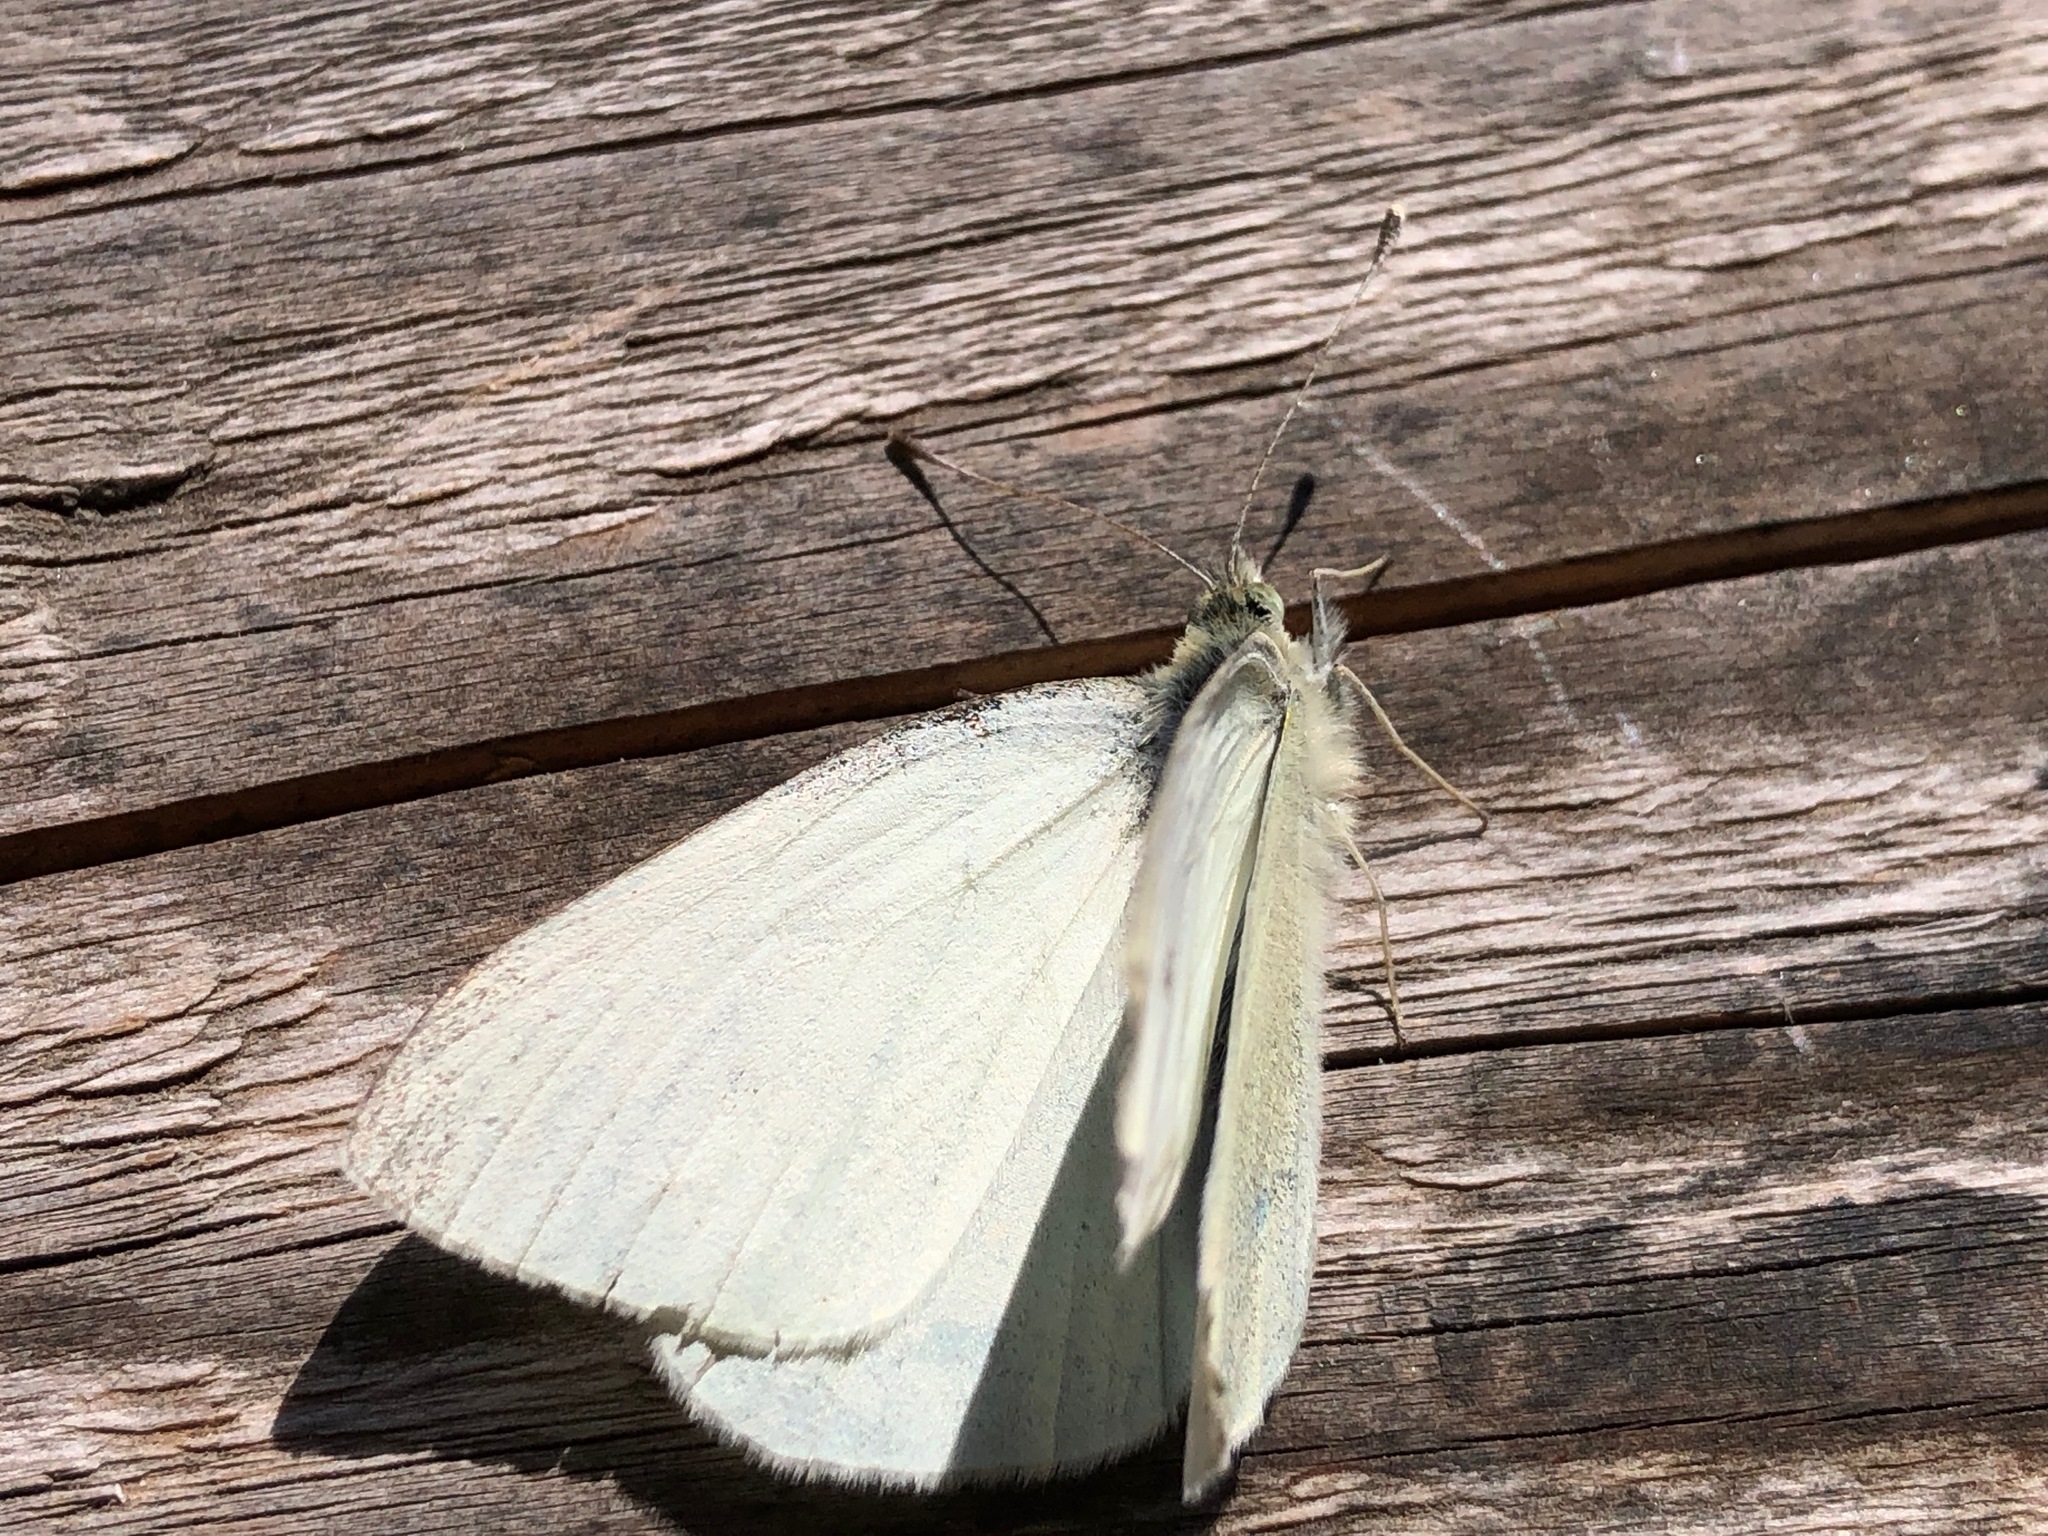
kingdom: Animalia
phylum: Arthropoda
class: Insecta
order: Lepidoptera
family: Pieridae
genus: Pieris
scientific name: Pieris rapae
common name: Small white
